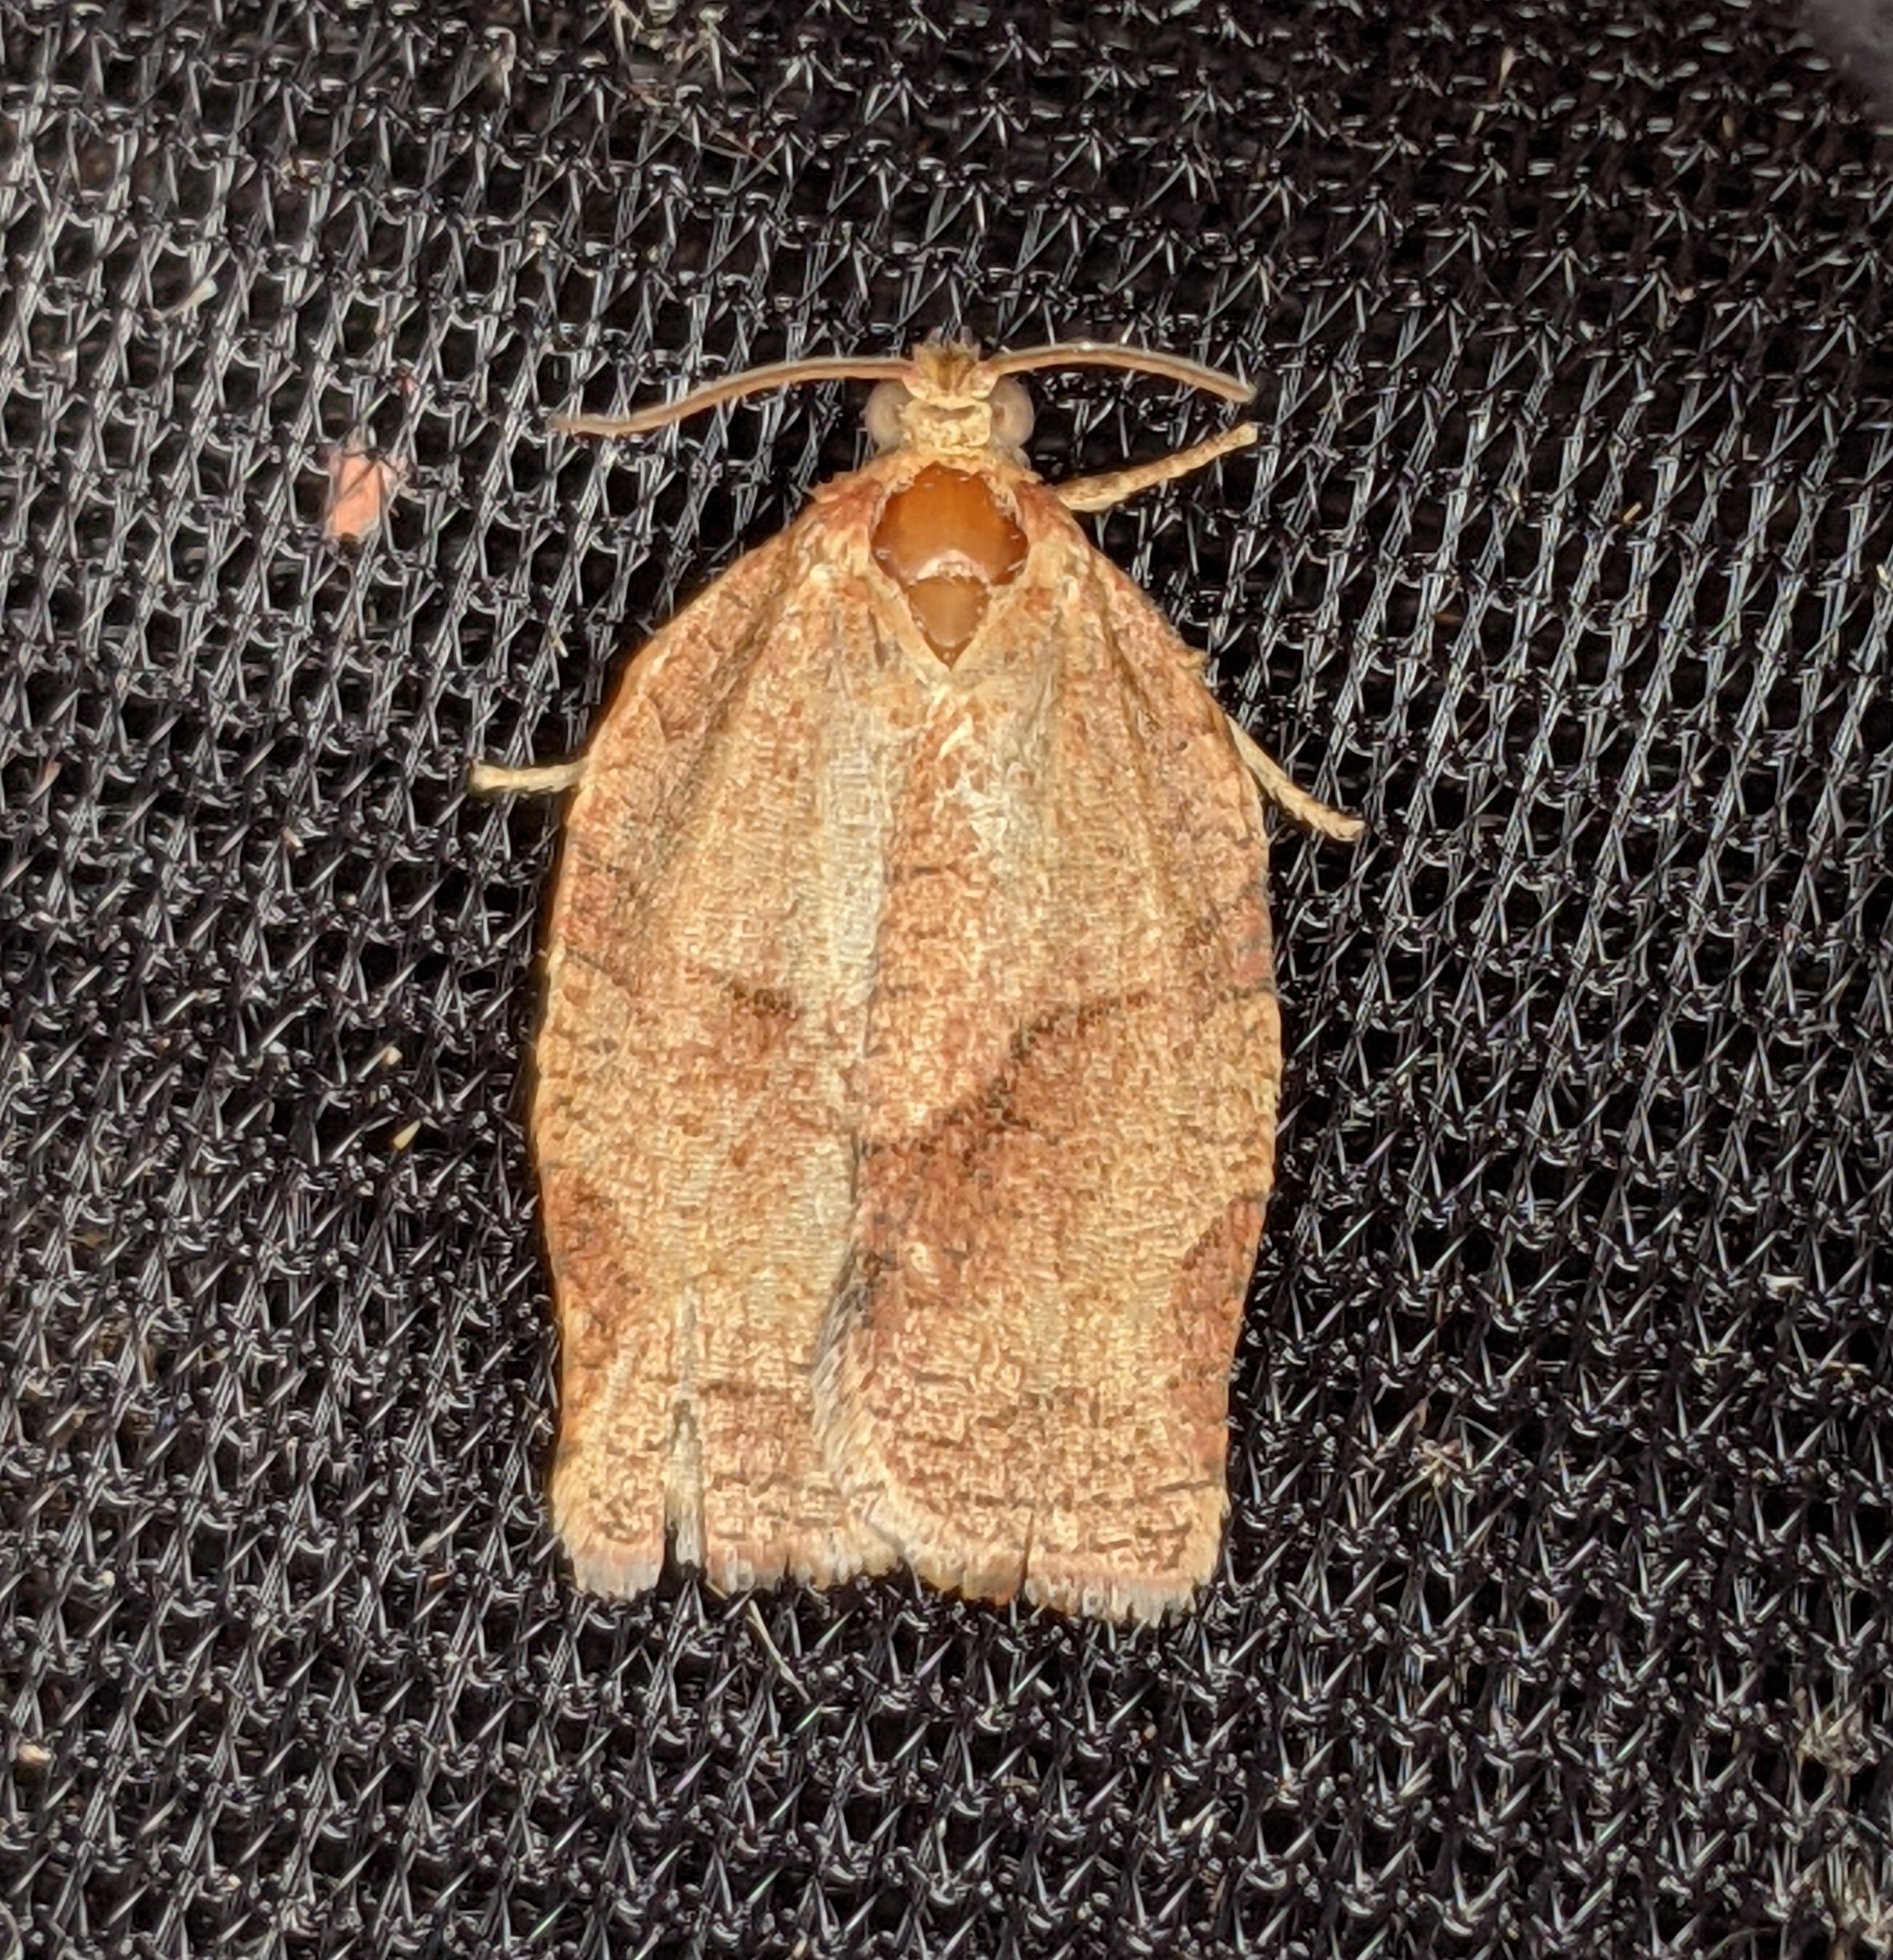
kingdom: Animalia
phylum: Arthropoda
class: Insecta
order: Lepidoptera
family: Tortricidae
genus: Choristoneura
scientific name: Choristoneura rosaceana
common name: Oblique-banded leafroller moth
